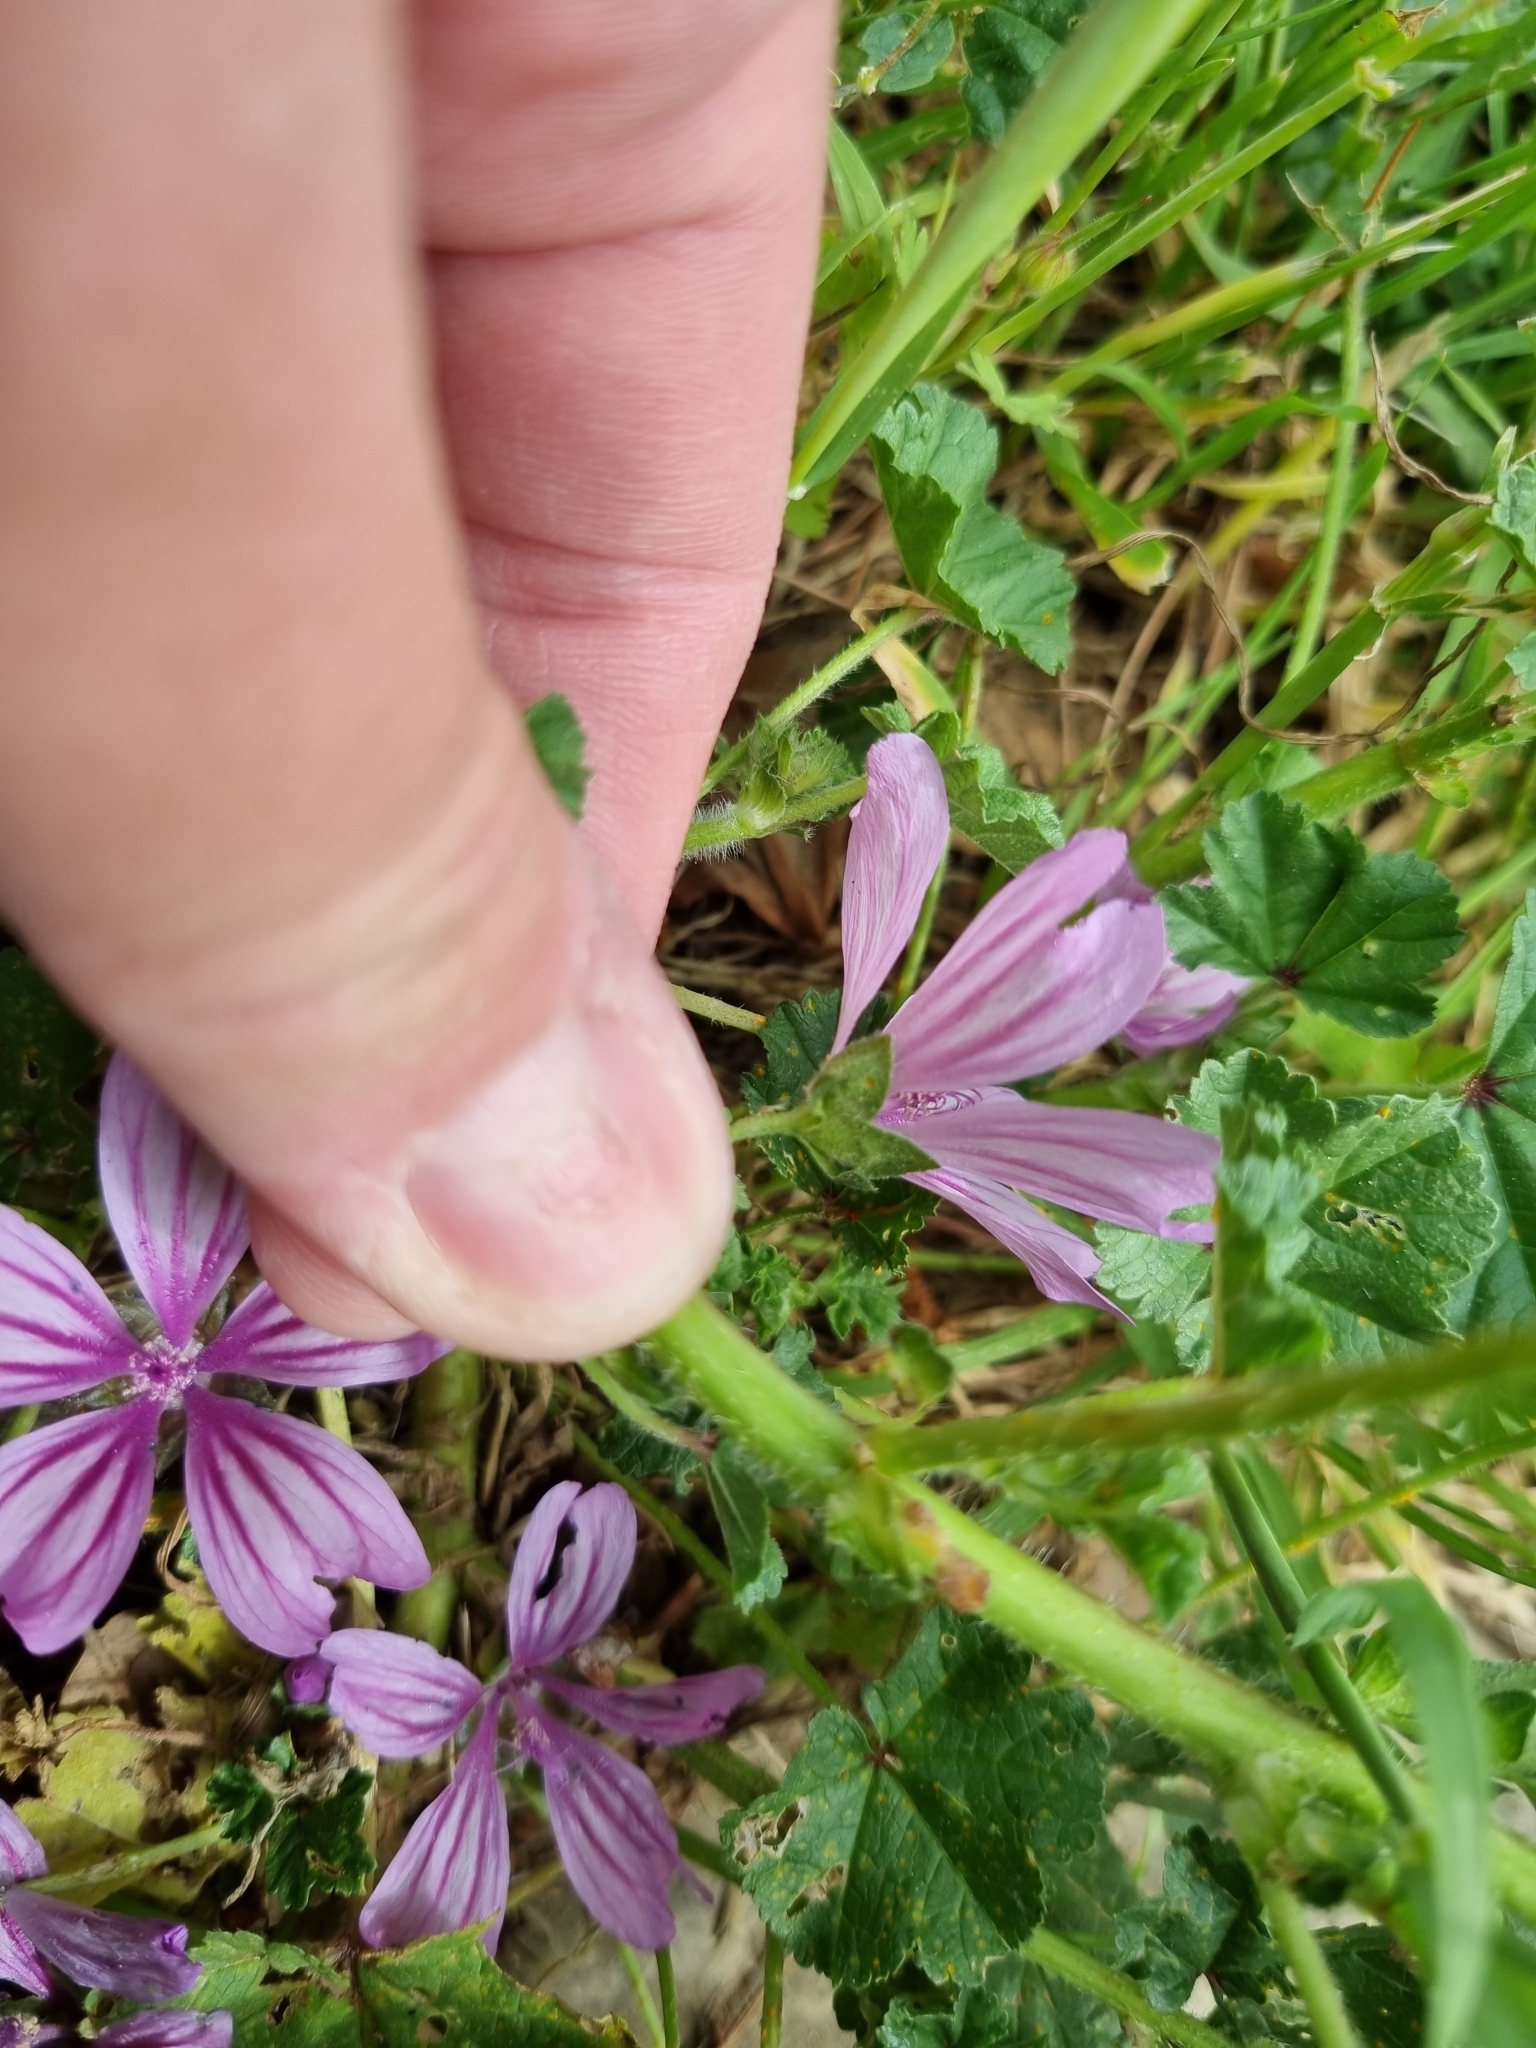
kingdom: Plantae
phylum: Tracheophyta
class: Magnoliopsida
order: Malvales
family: Malvaceae
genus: Malva
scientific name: Malva sylvestris
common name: Common mallow
